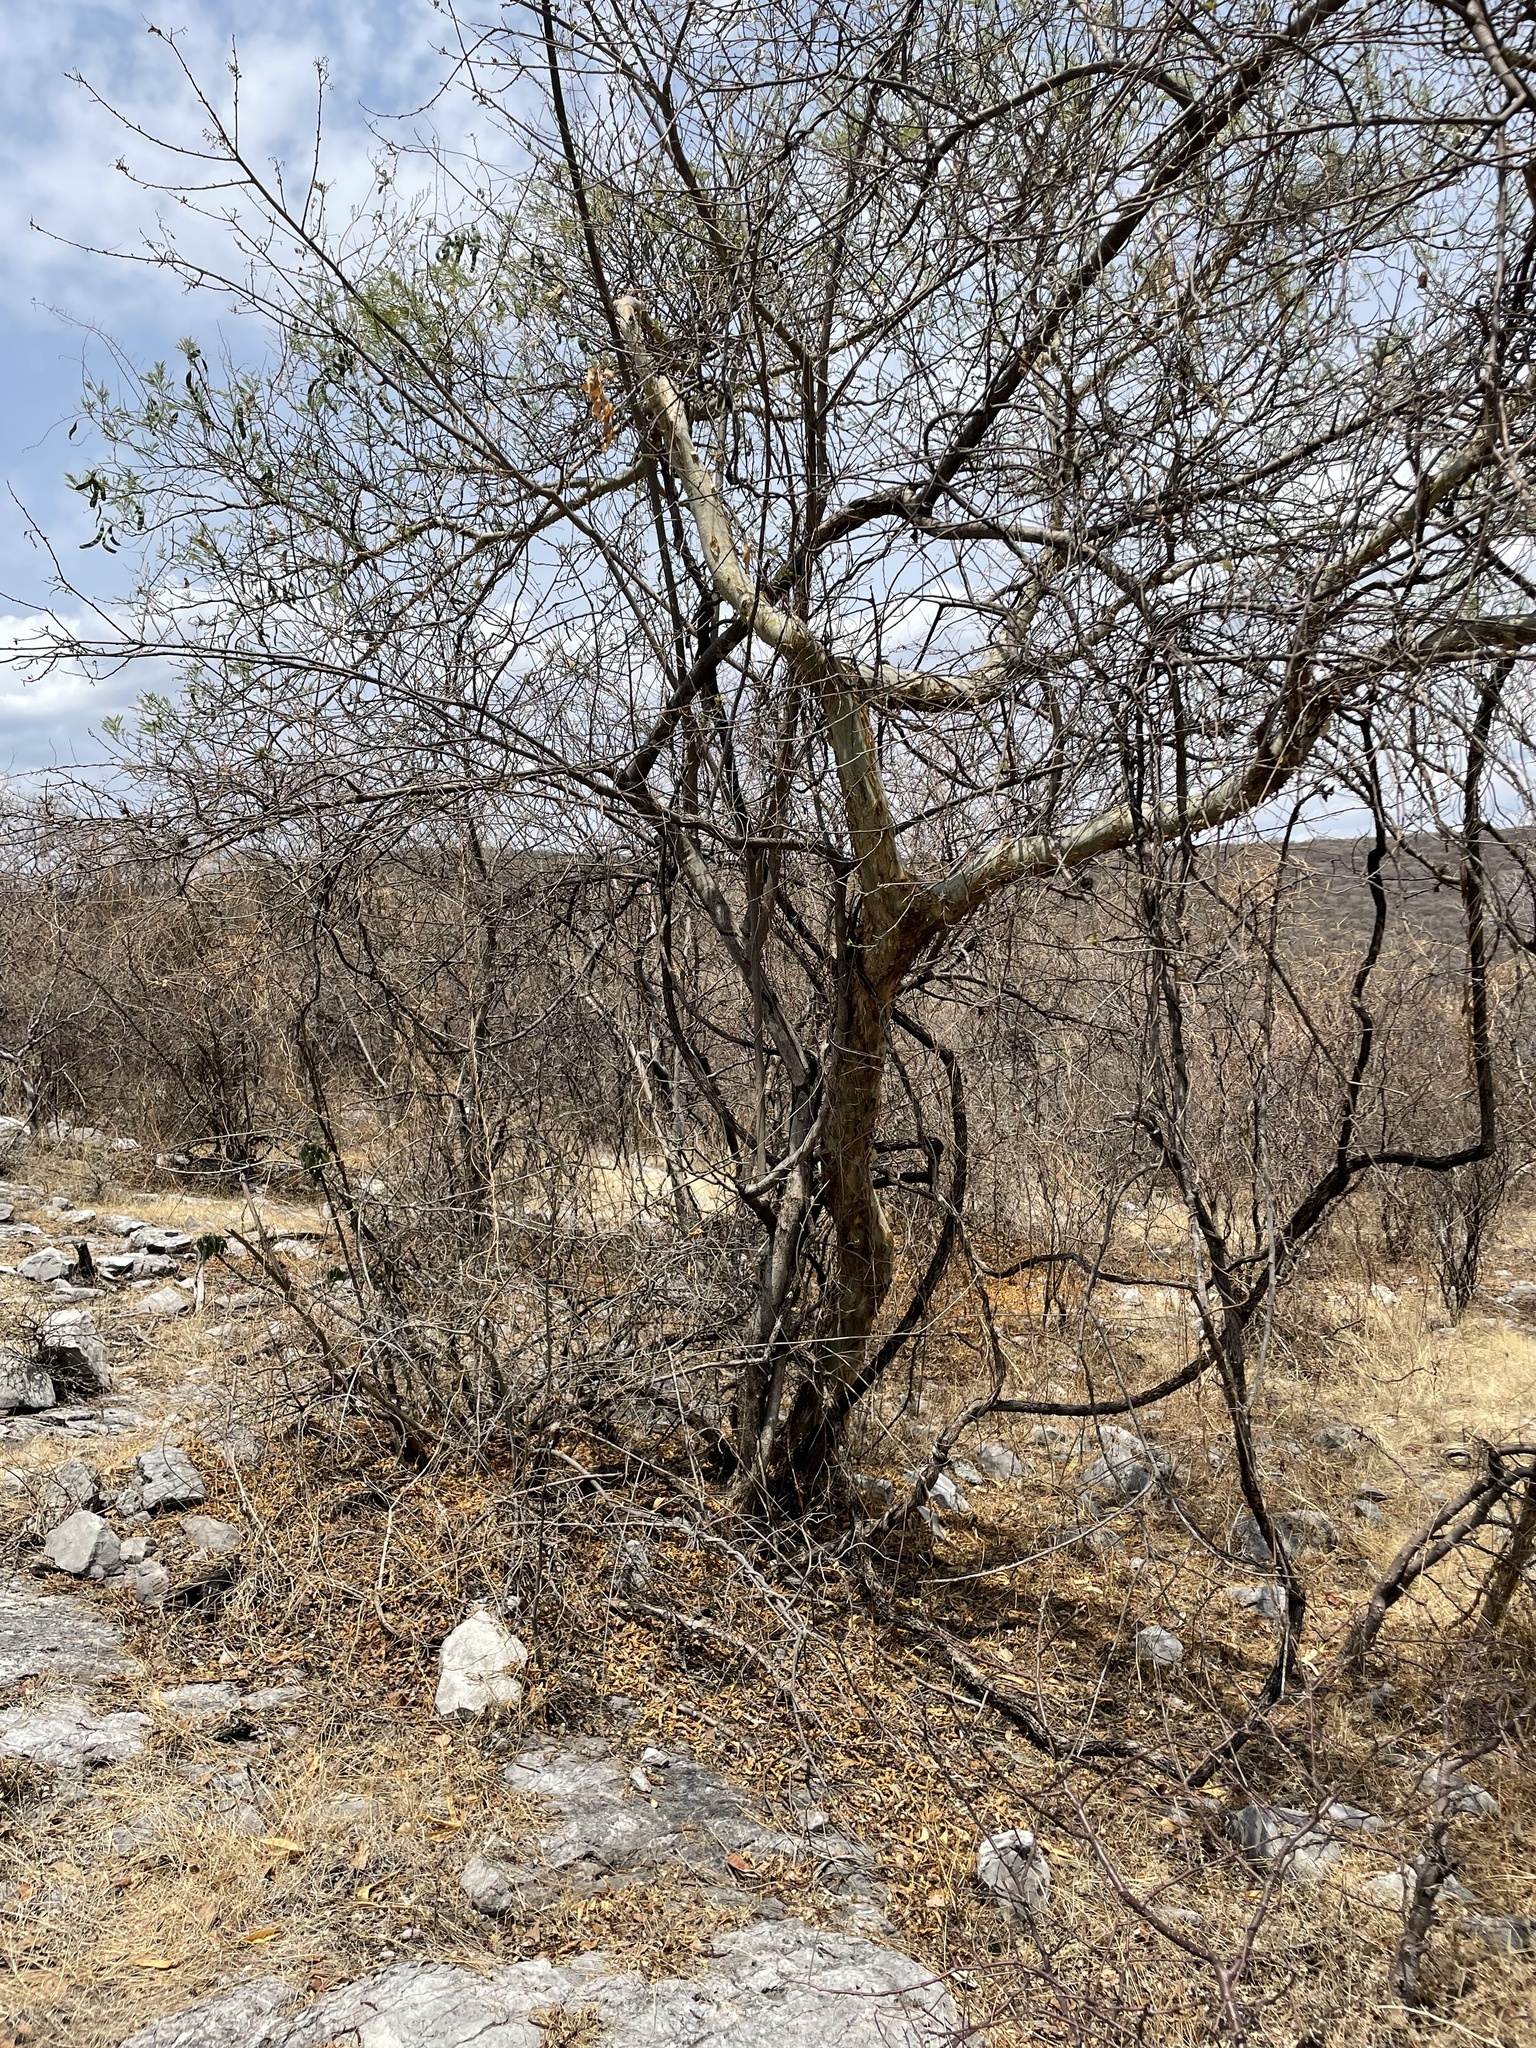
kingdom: Plantae
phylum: Tracheophyta
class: Magnoliopsida
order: Fabales
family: Fabaceae
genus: Mariosousa
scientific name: Mariosousa salazarii
